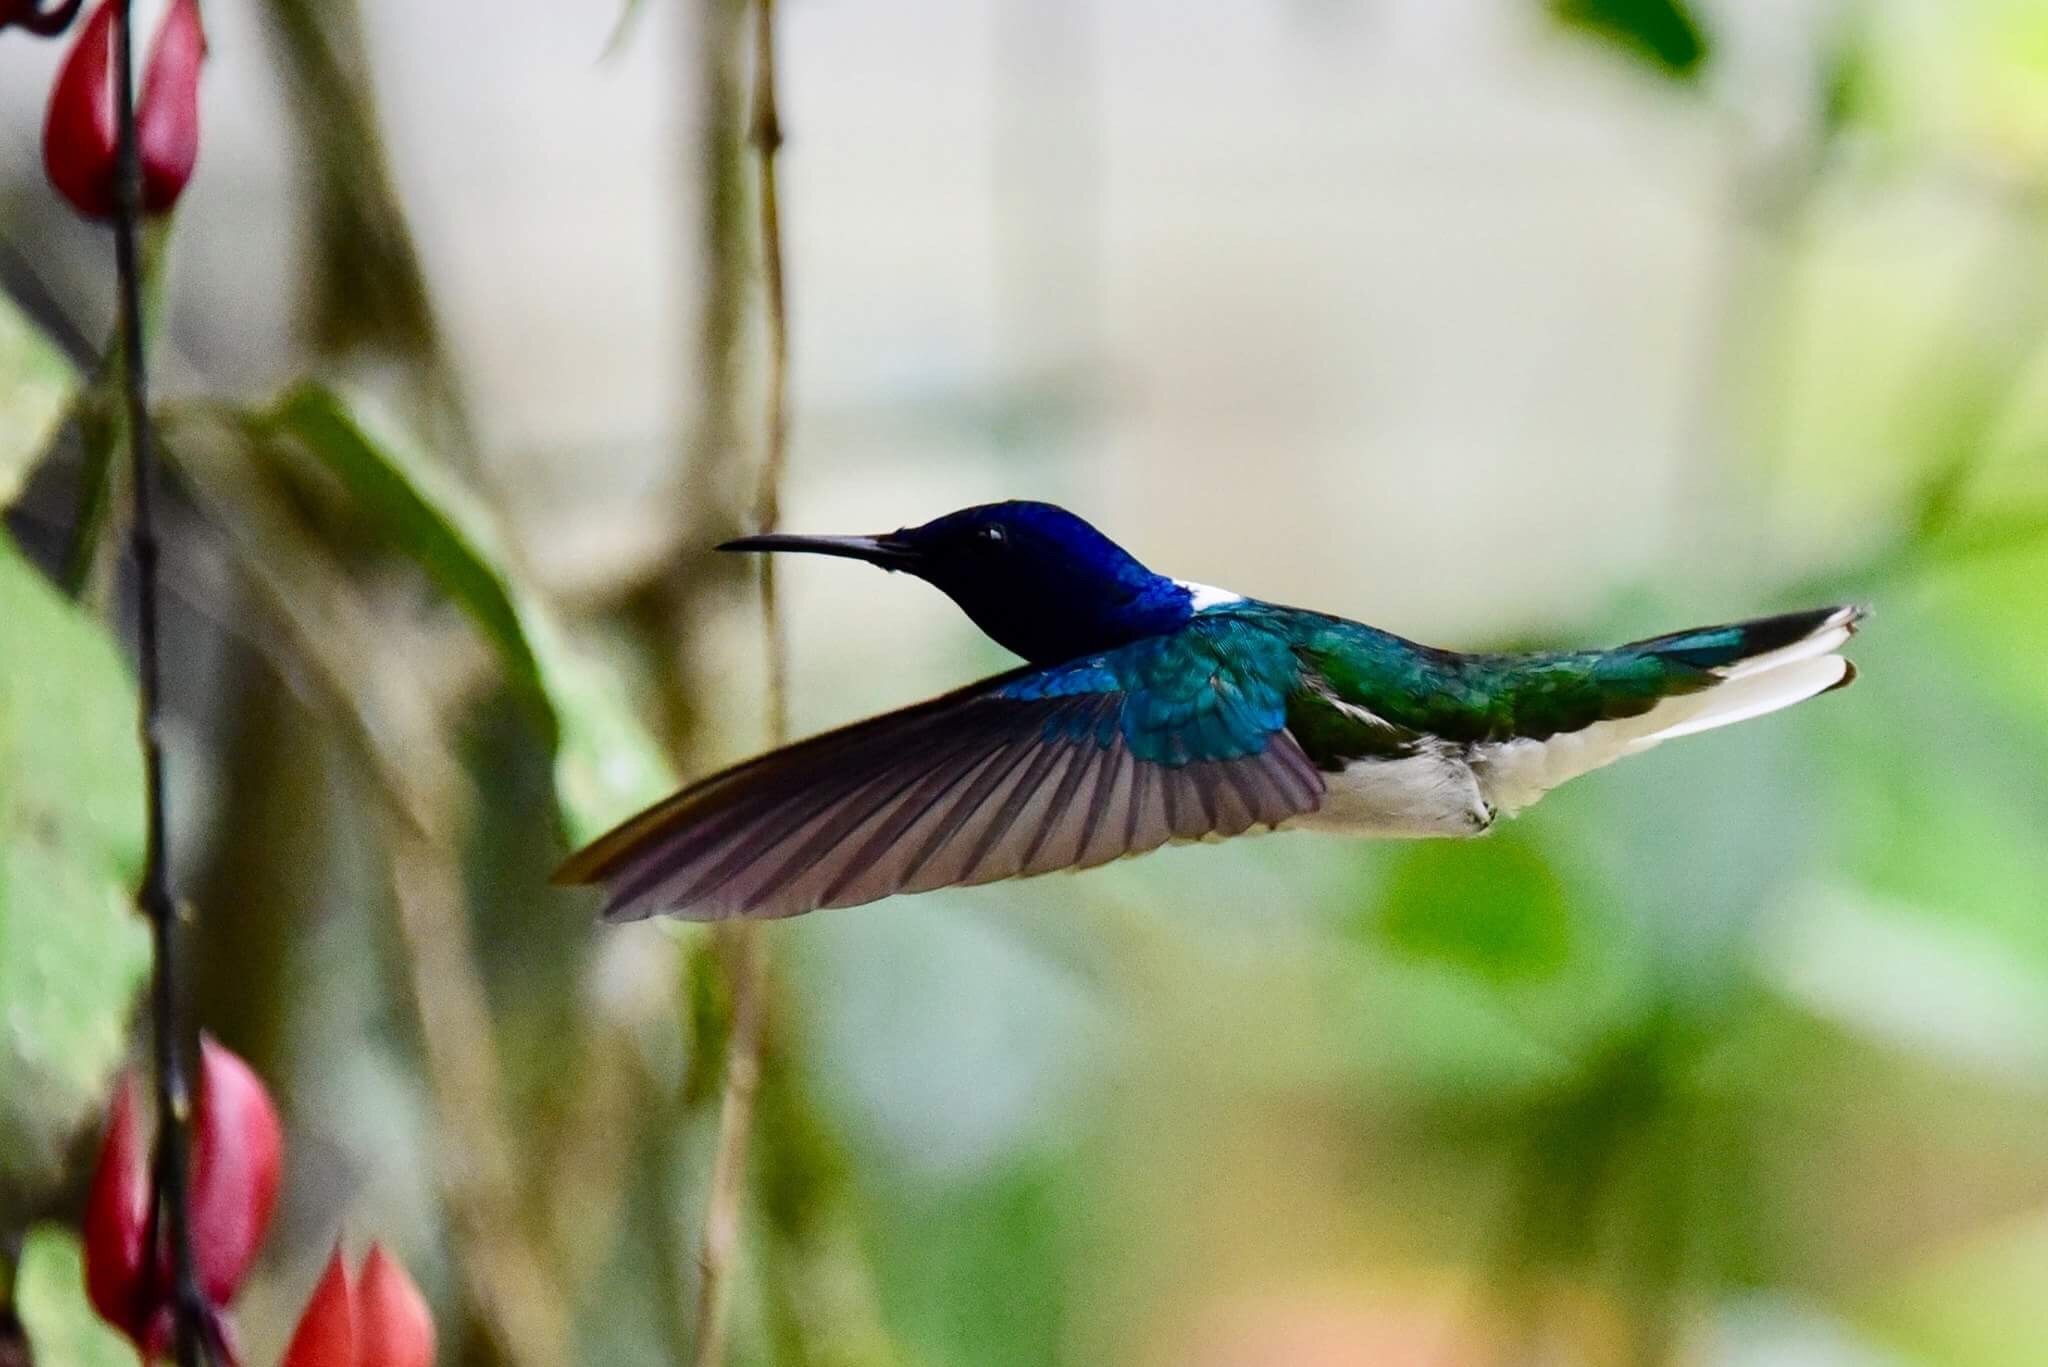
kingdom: Animalia
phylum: Chordata
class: Aves
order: Apodiformes
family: Trochilidae
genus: Florisuga
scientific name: Florisuga mellivora
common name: White-necked jacobin
